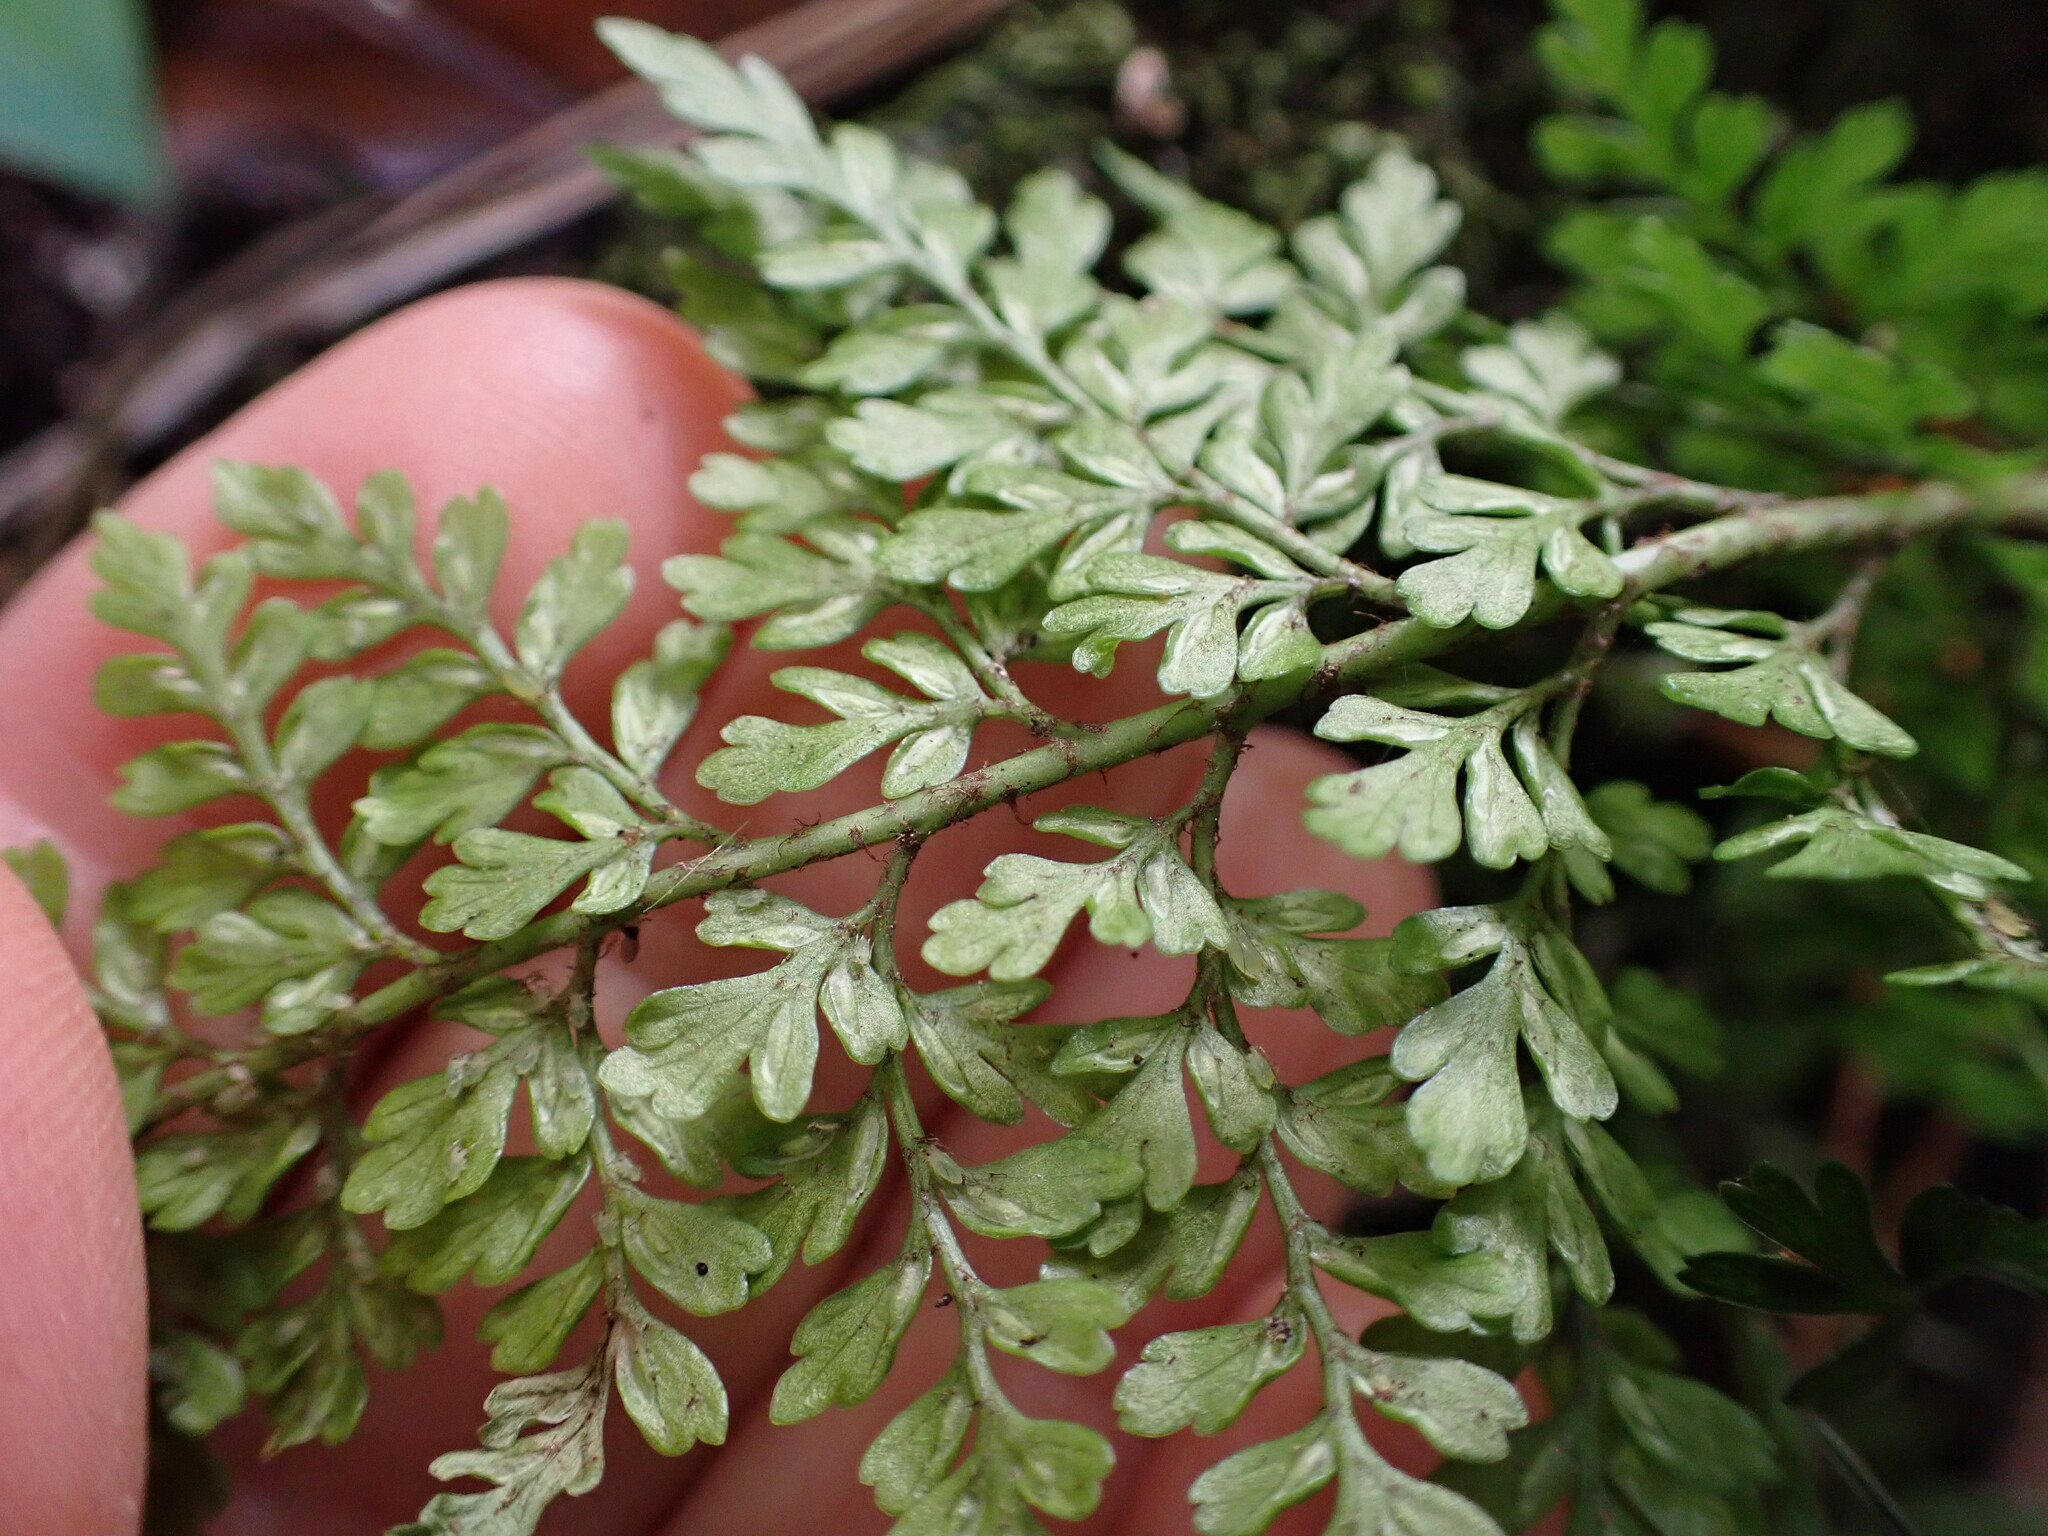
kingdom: Plantae
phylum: Tracheophyta
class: Polypodiopsida
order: Polypodiales
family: Aspleniaceae
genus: Asplenium
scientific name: Asplenium hookerianum
